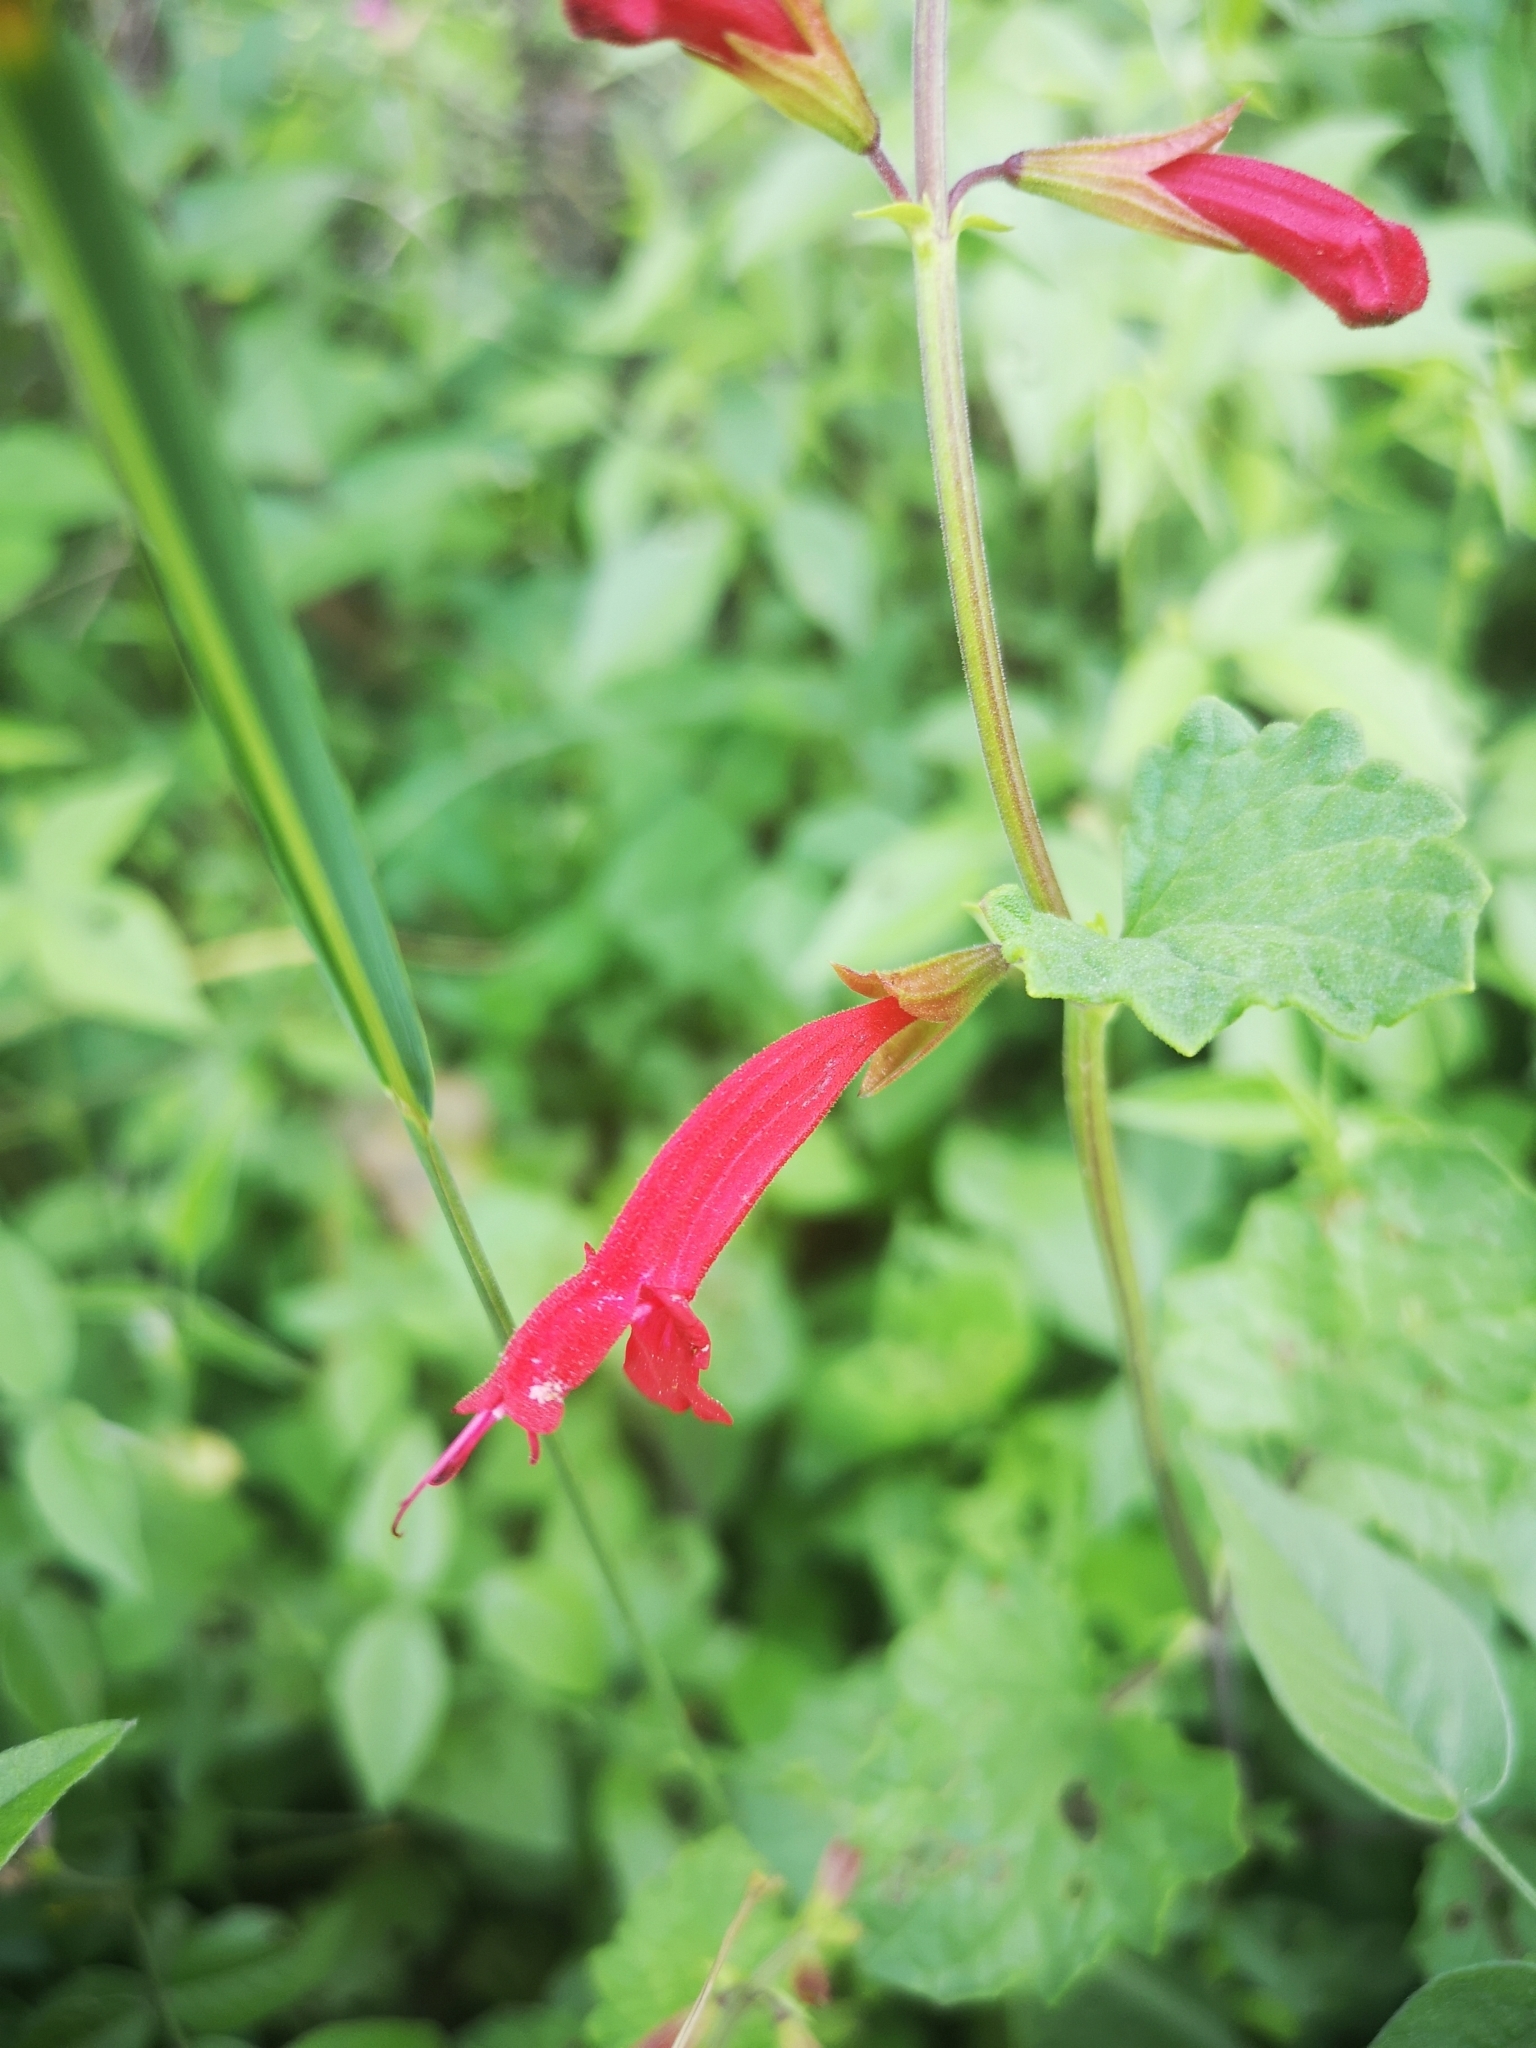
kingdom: Plantae
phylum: Tracheophyta
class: Magnoliopsida
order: Lamiales
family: Lamiaceae
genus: Salvia
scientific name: Salvia roemeriana
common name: Cedar sage
